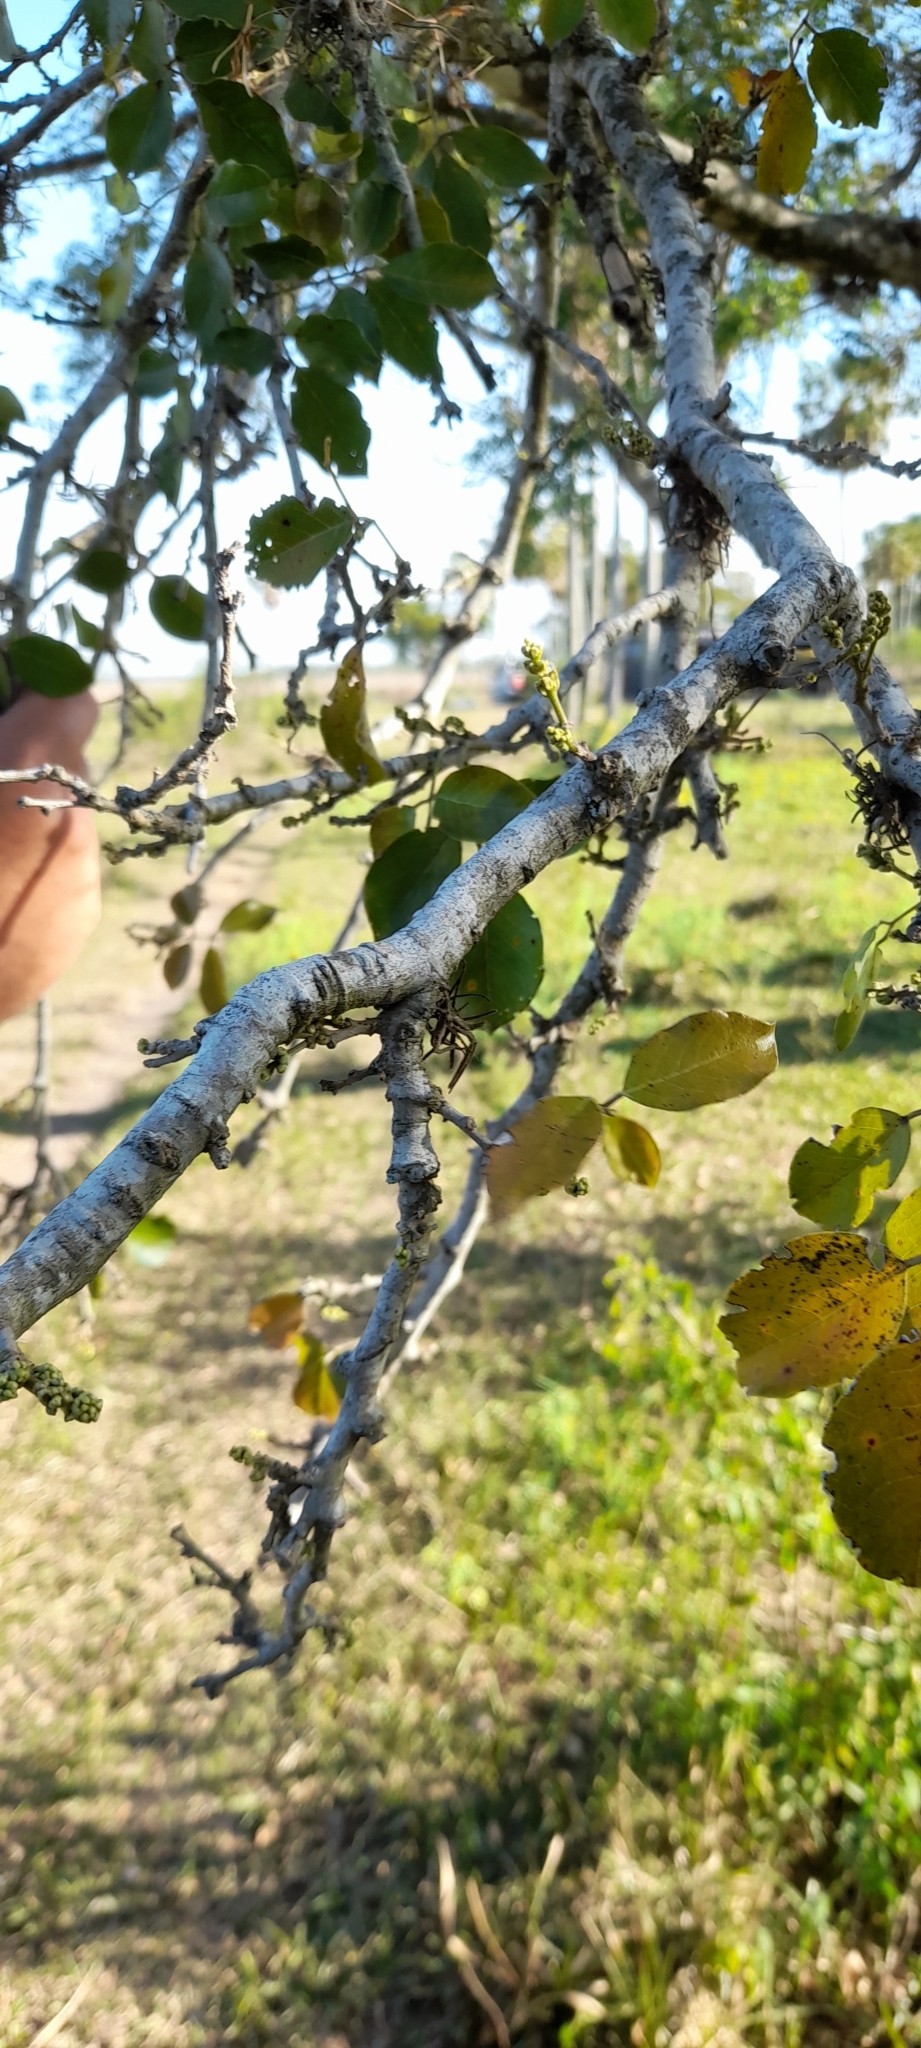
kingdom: Plantae
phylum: Tracheophyta
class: Magnoliopsida
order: Malpighiales
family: Phyllanthaceae
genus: Phyllanthus
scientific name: Phyllanthus chacoensis
